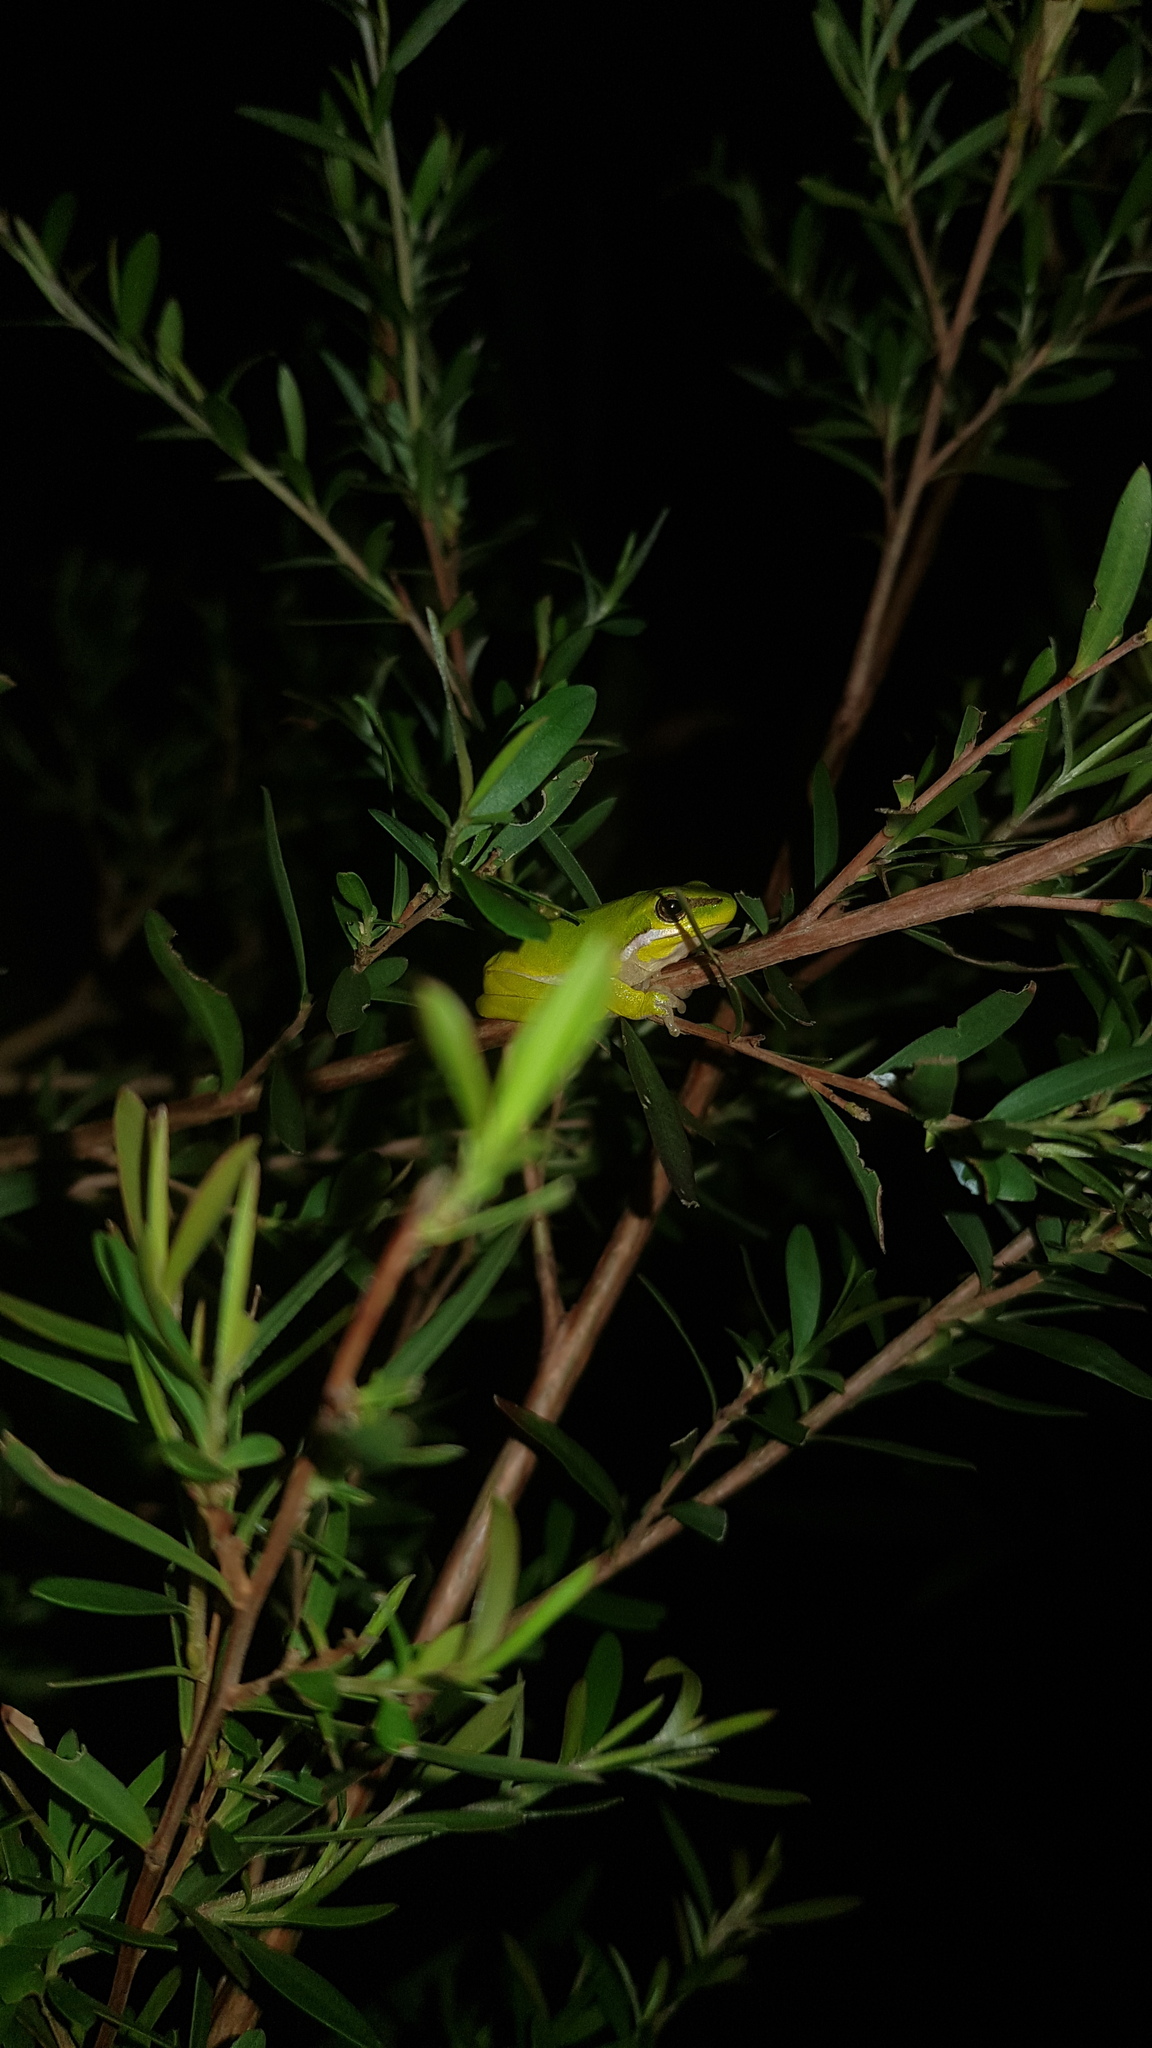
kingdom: Animalia
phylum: Chordata
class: Amphibia
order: Anura
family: Pelodryadidae
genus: Litoria
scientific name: Litoria fallax
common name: Eastern dwarf treefrog
